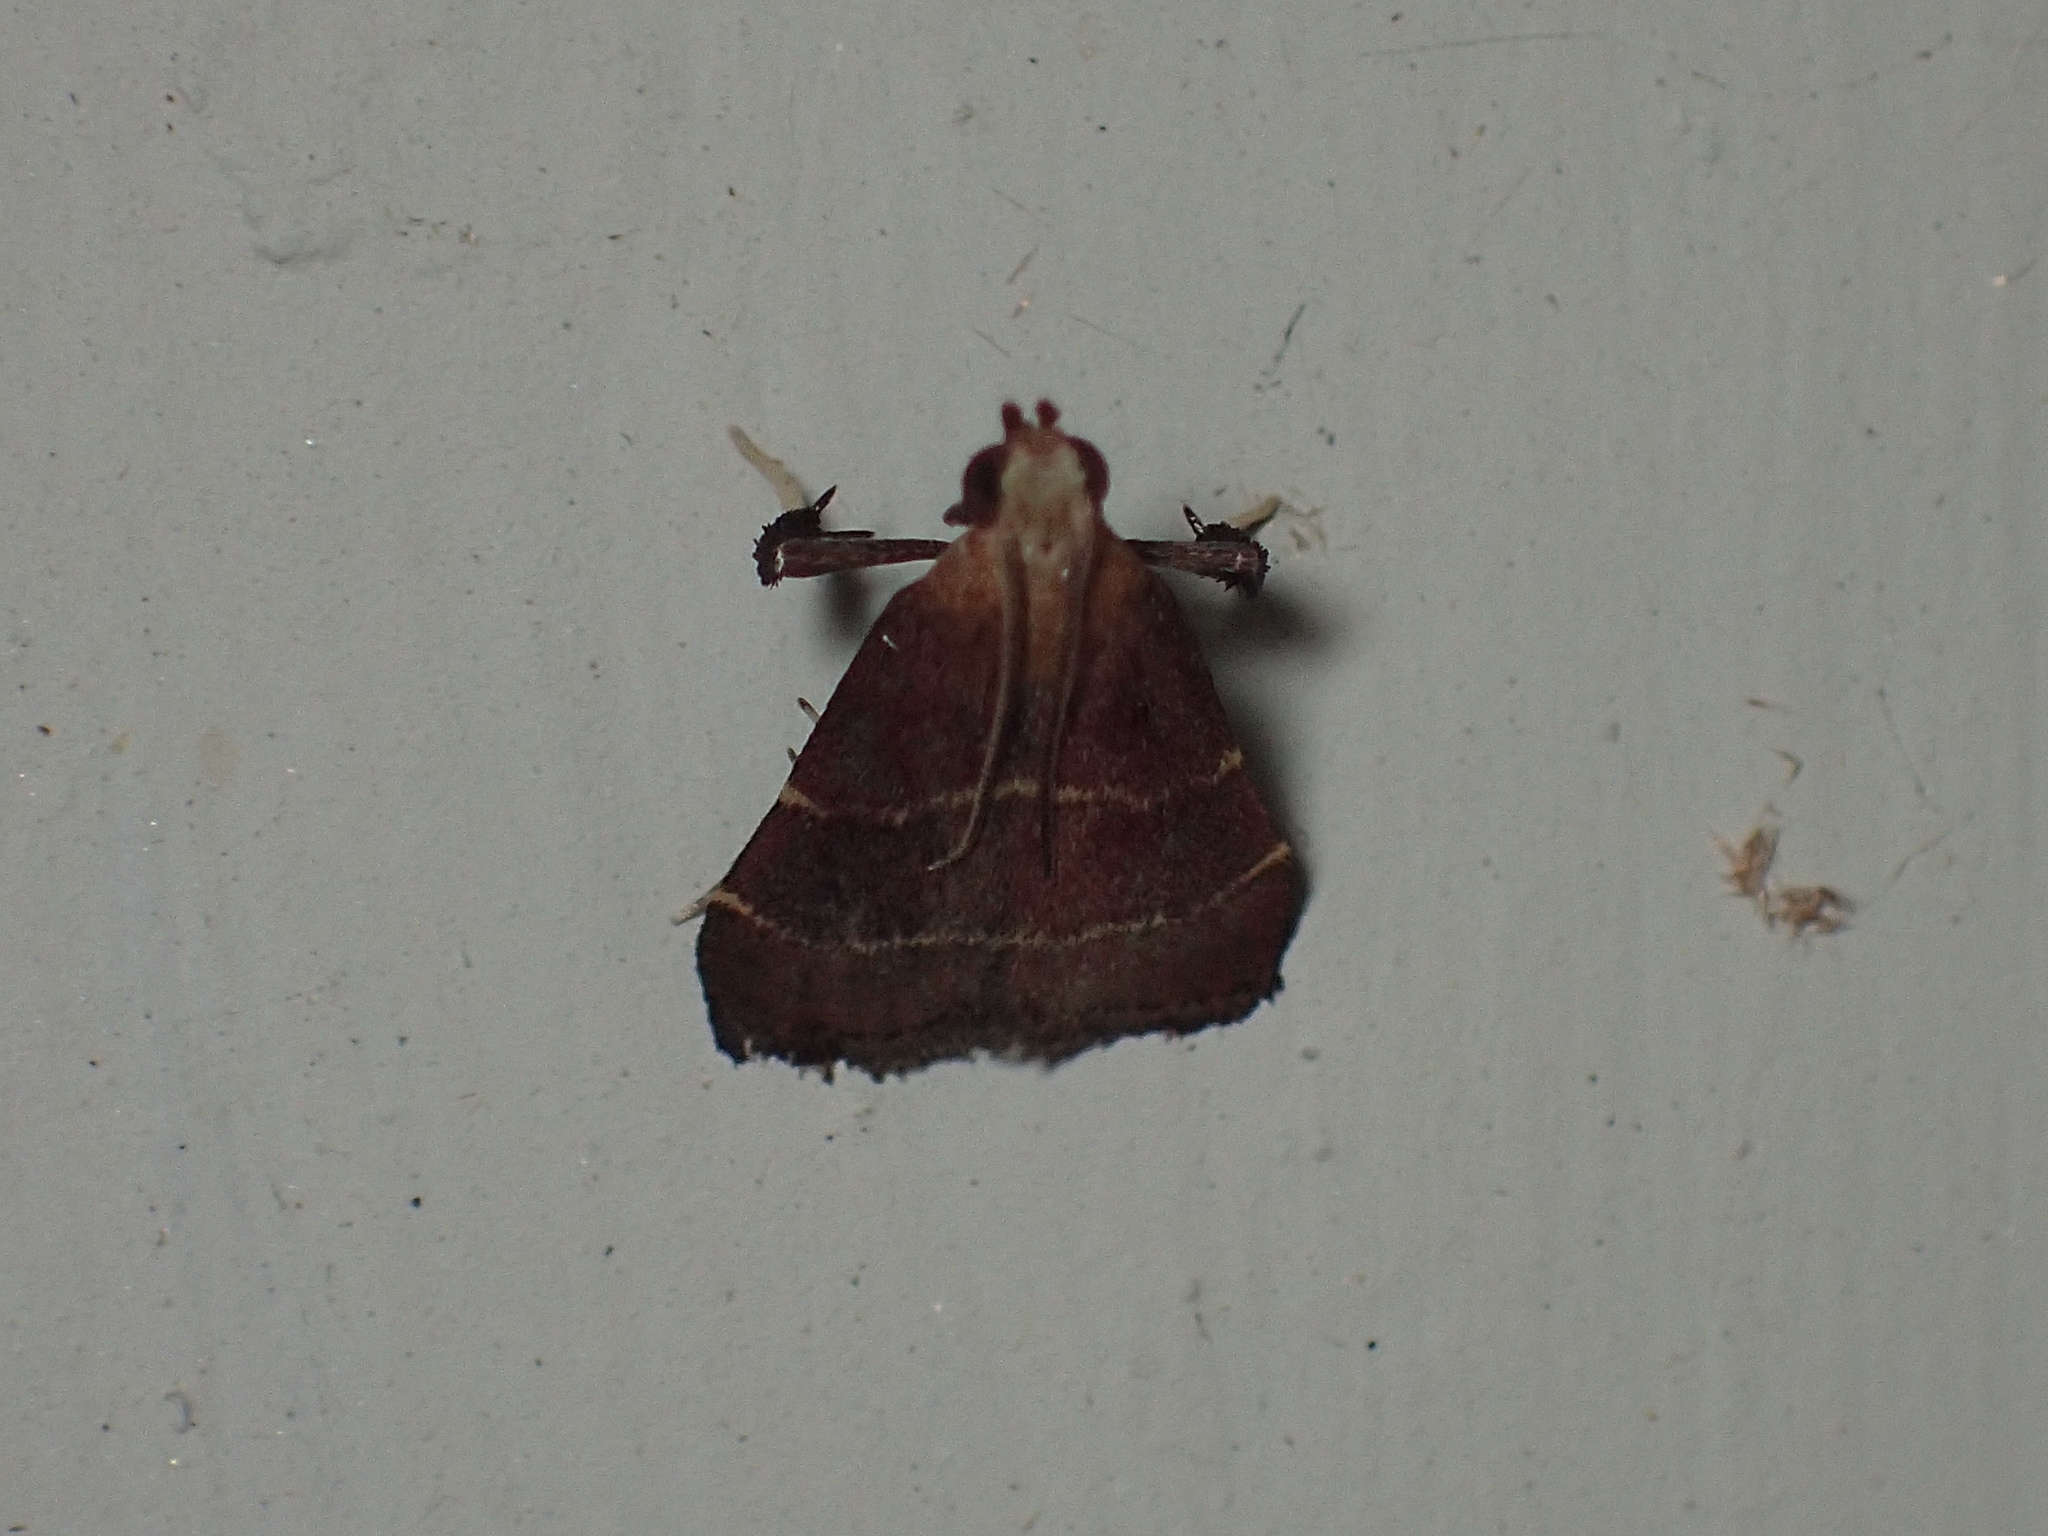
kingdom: Animalia
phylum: Arthropoda
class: Insecta
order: Lepidoptera
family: Pyralidae
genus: Arta
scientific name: Arta statalis
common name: Posturing arta moth
